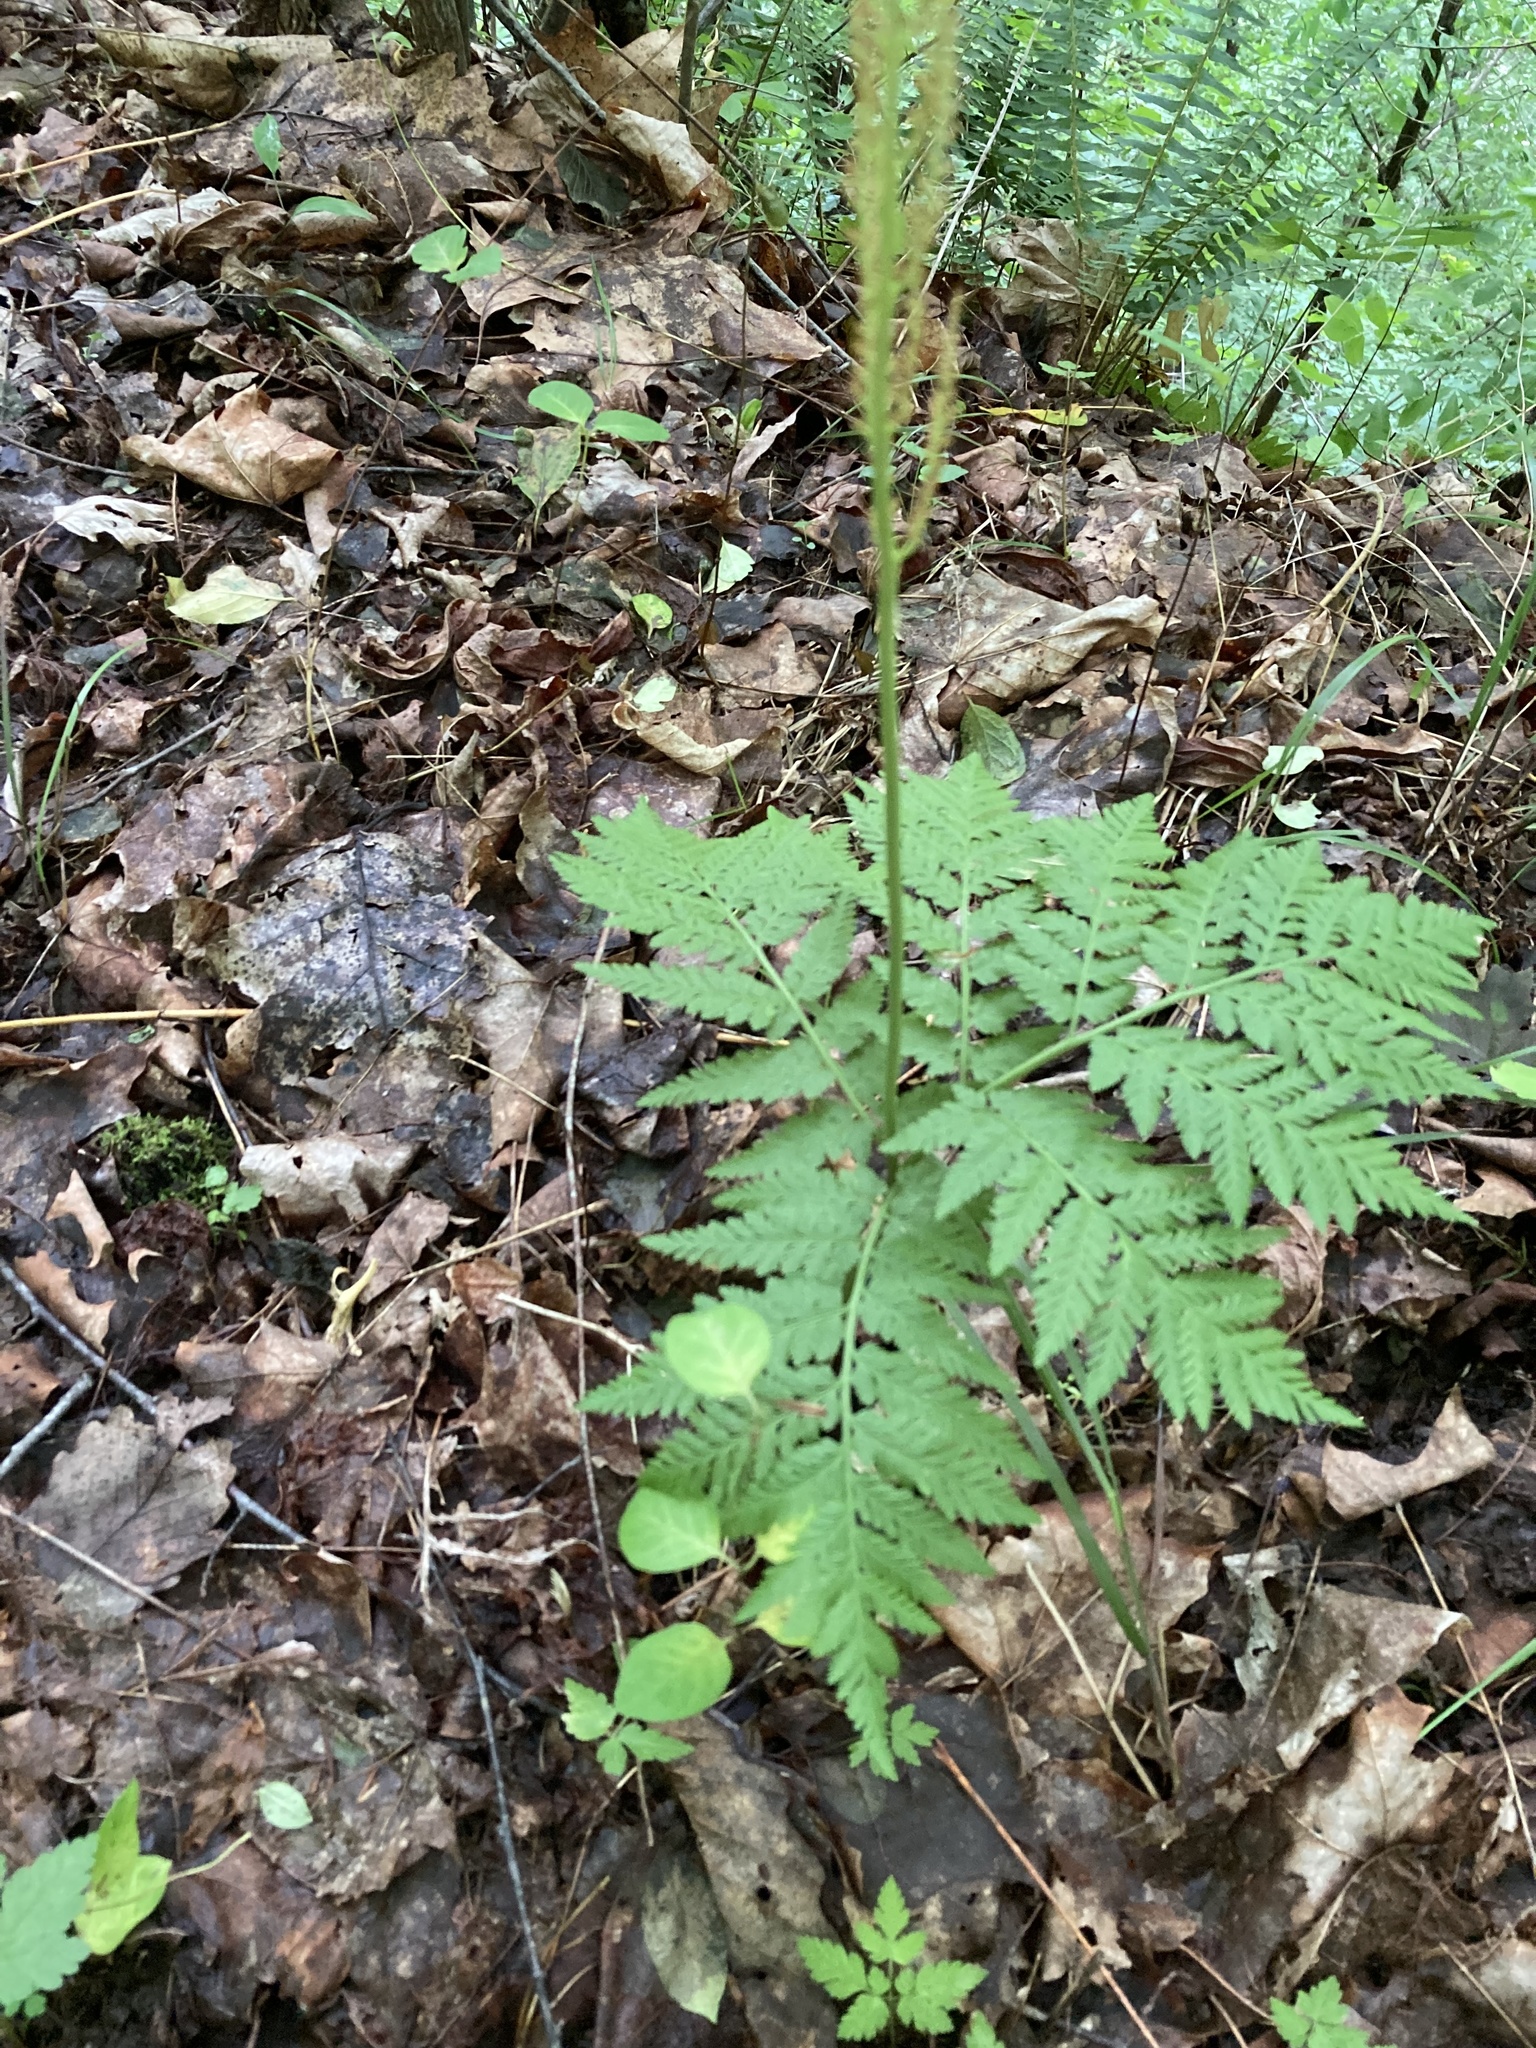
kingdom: Plantae
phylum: Tracheophyta
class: Polypodiopsida
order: Ophioglossales
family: Ophioglossaceae
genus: Botrypus
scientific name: Botrypus virginianus
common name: Common grapefern
